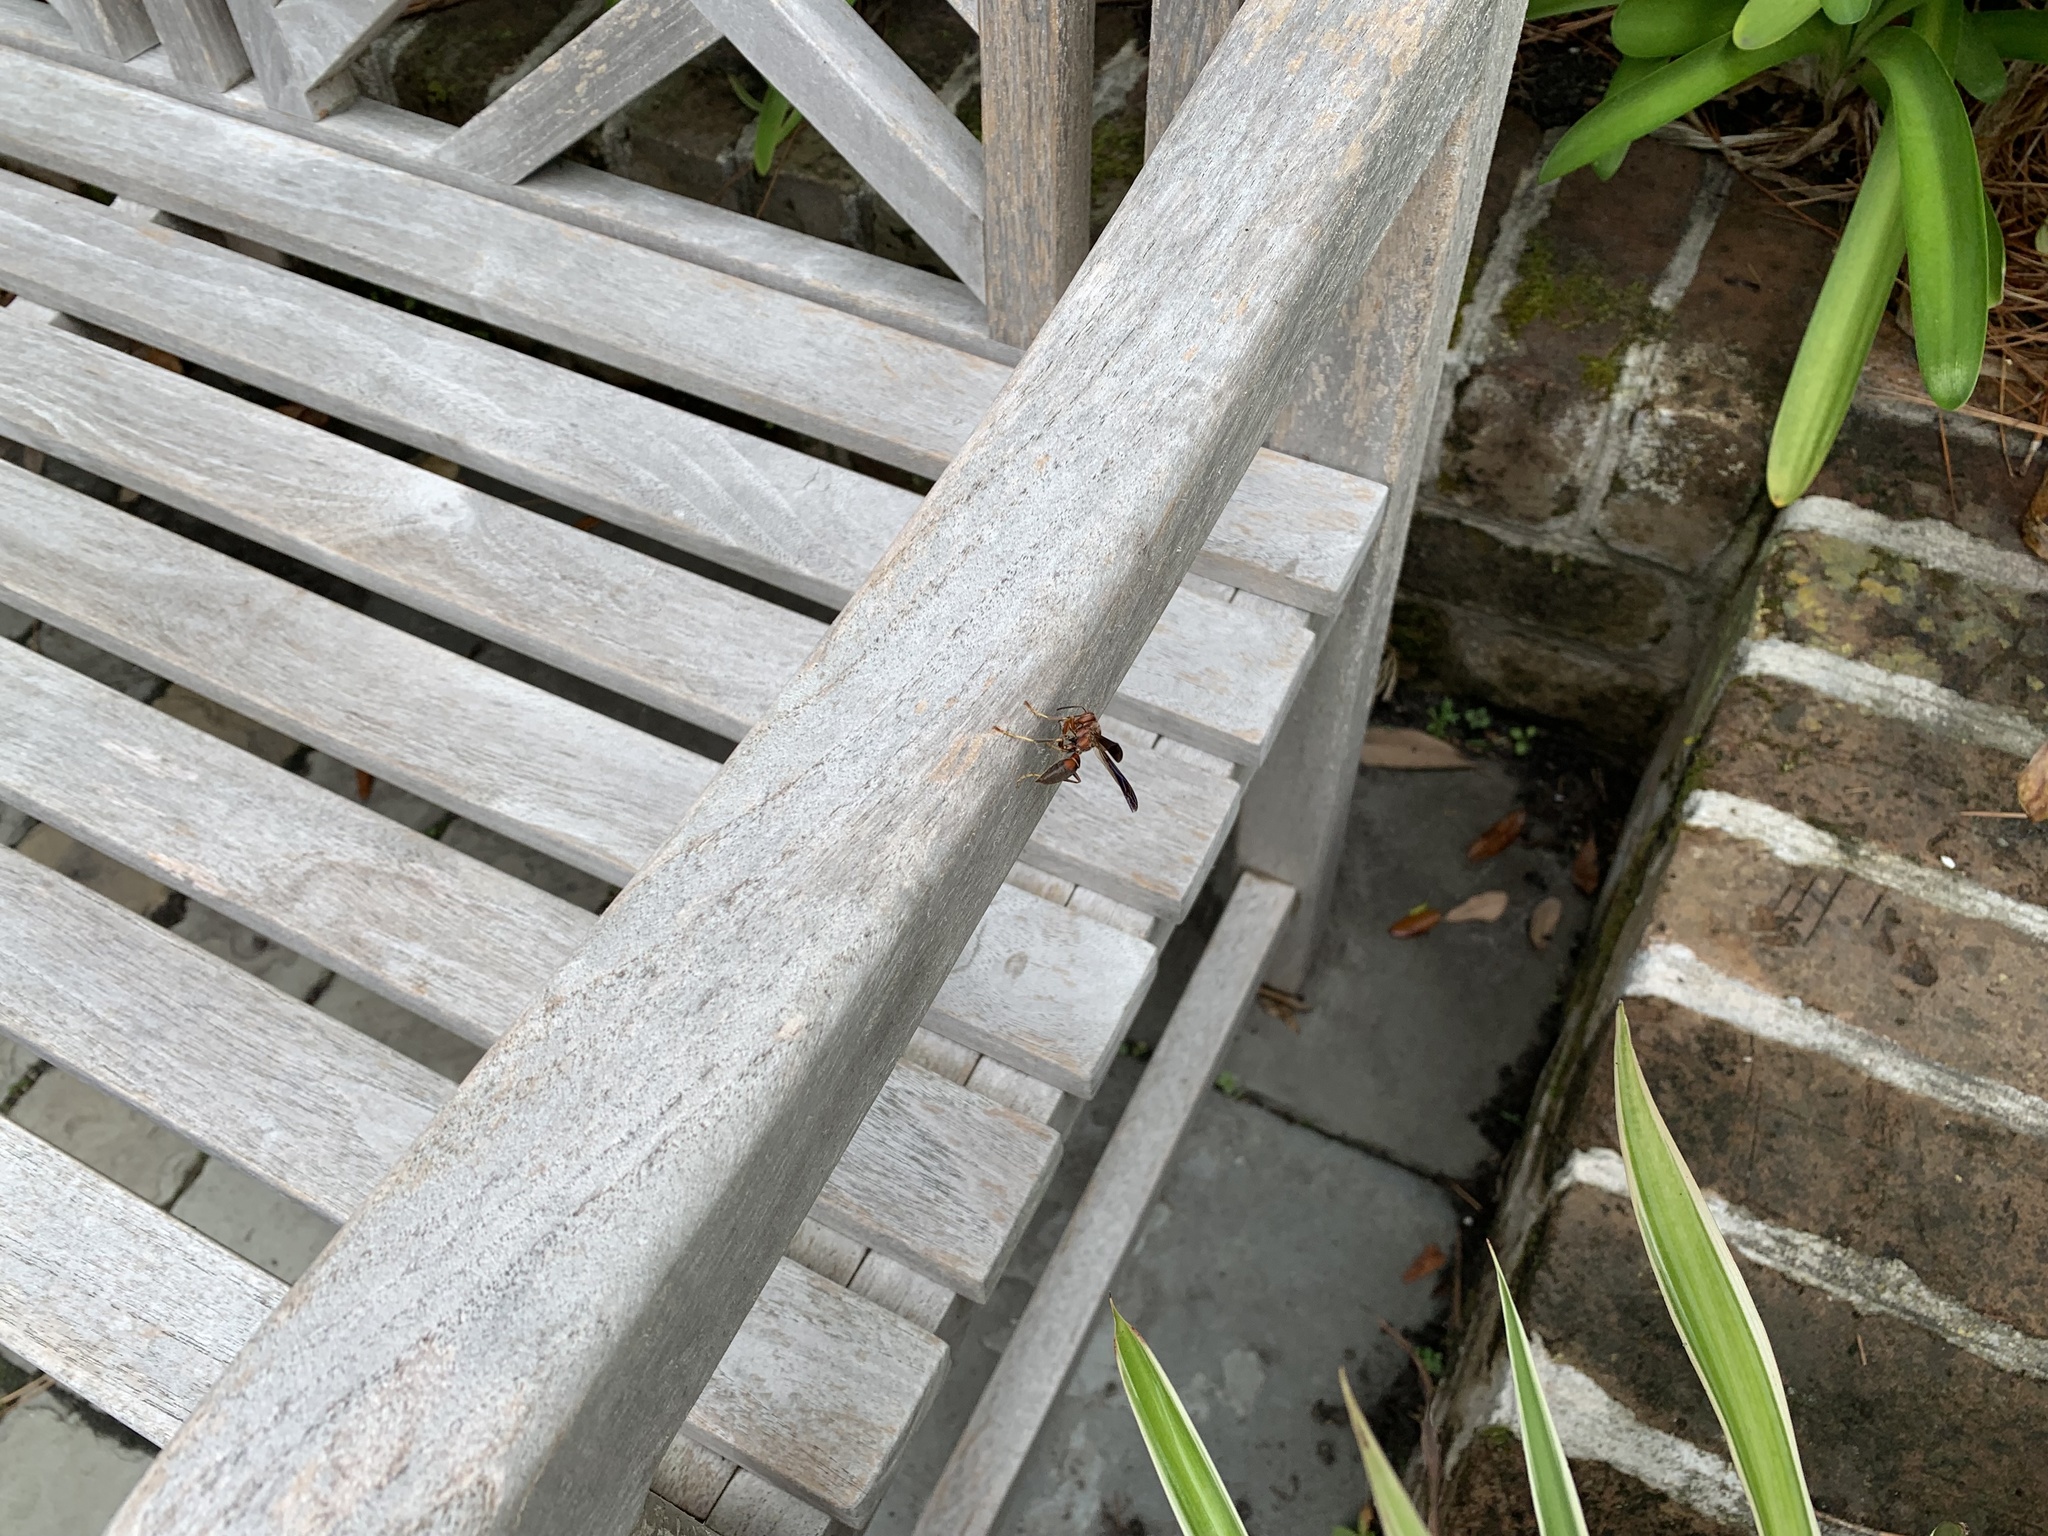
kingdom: Animalia
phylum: Arthropoda
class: Insecta
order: Hymenoptera
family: Eumenidae
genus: Polistes
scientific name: Polistes metricus
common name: Metric paper wasp
